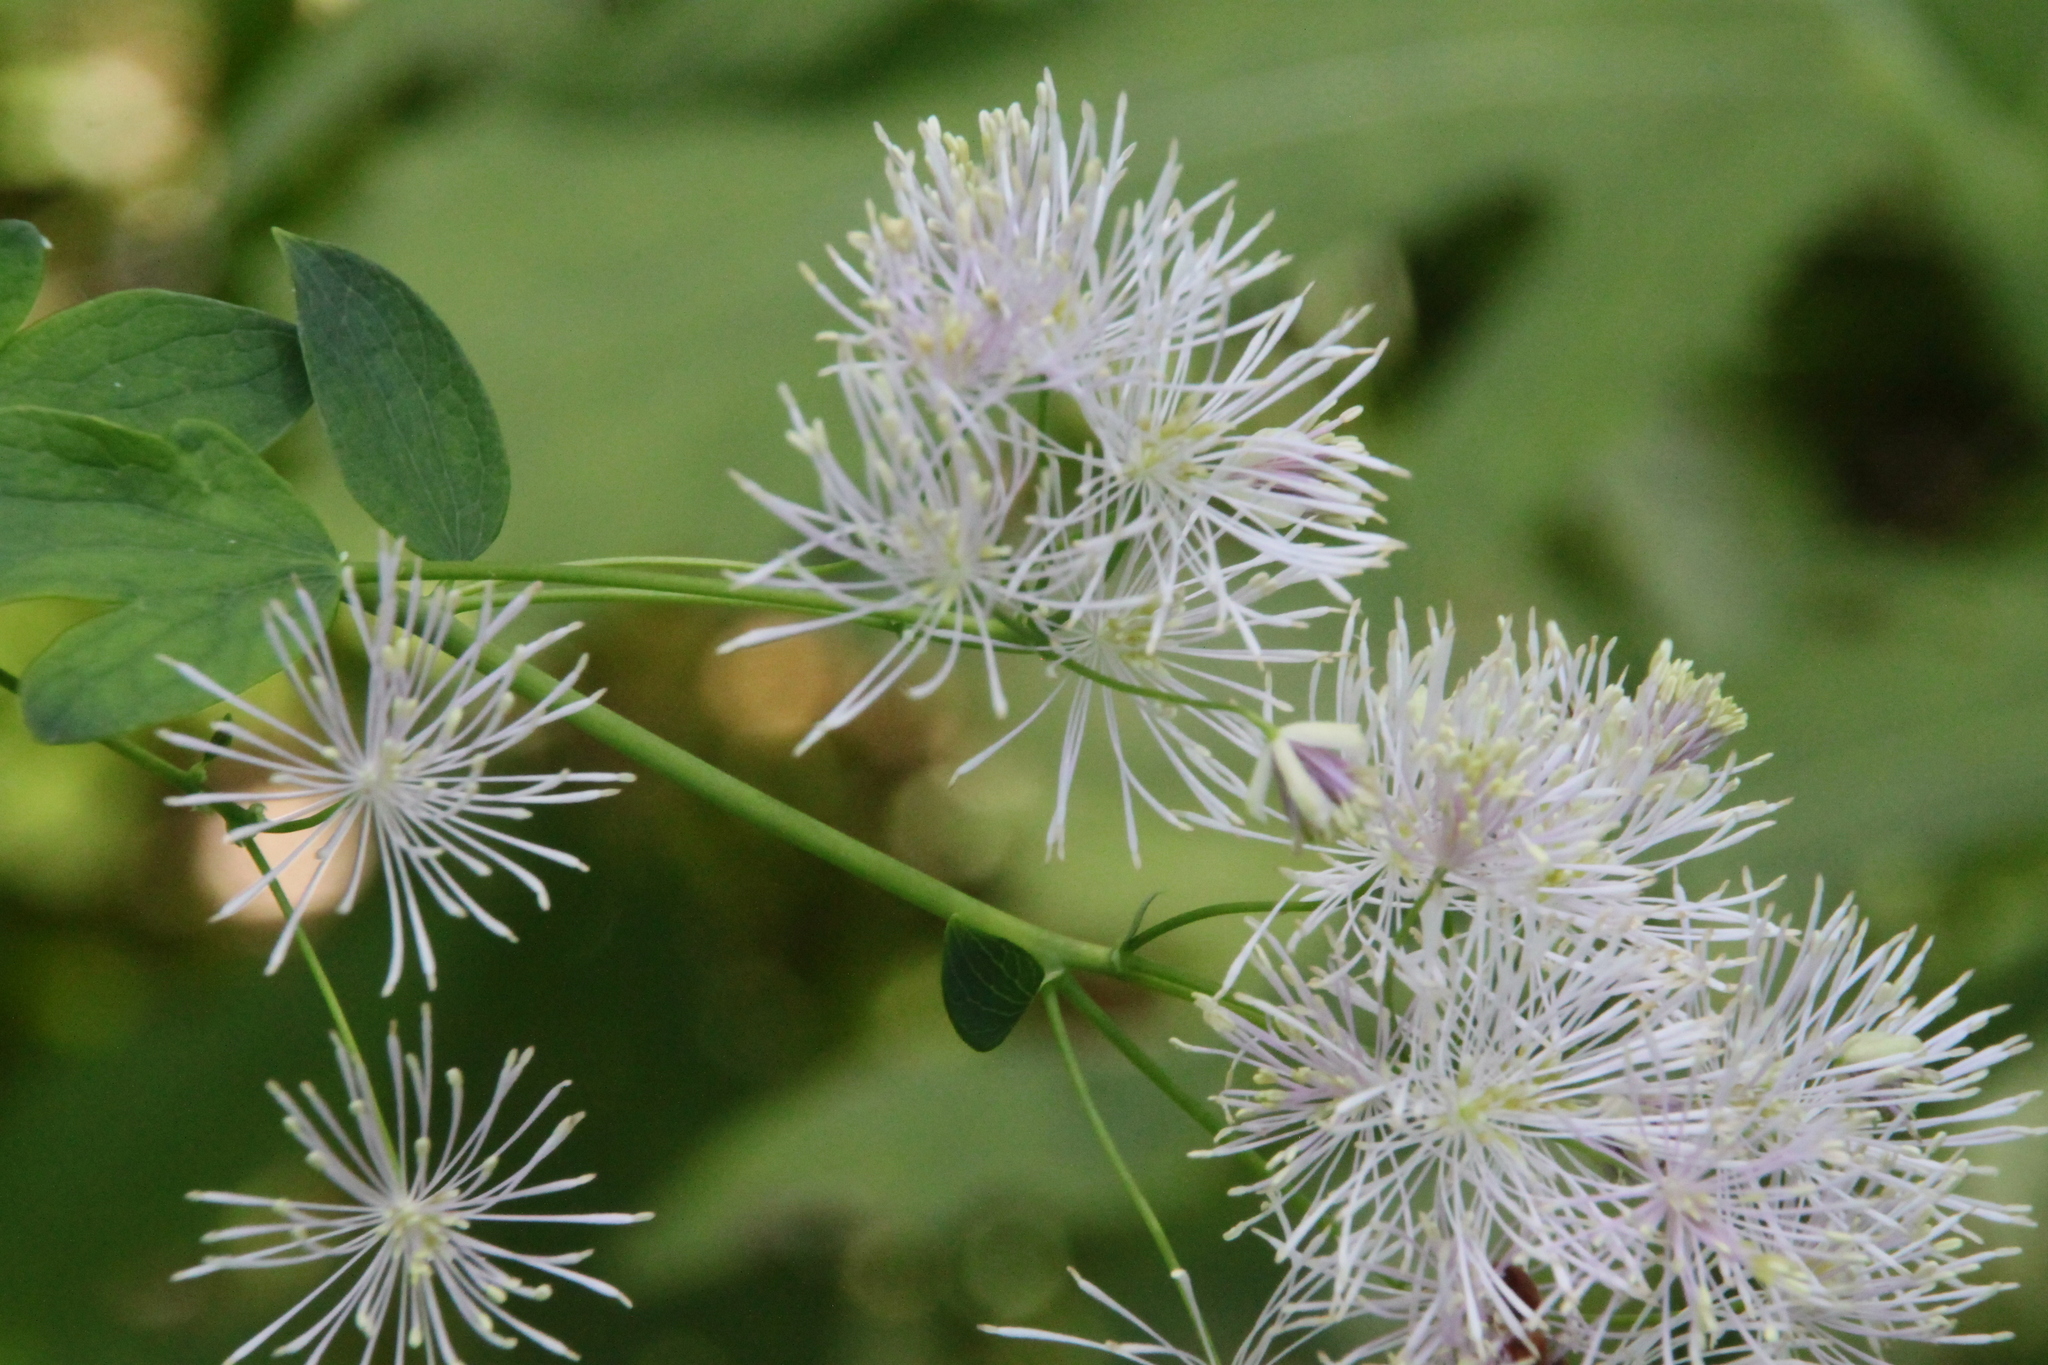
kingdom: Plantae
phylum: Tracheophyta
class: Magnoliopsida
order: Ranunculales
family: Ranunculaceae
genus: Thalictrum
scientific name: Thalictrum aquilegiifolium
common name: French meadow-rue
